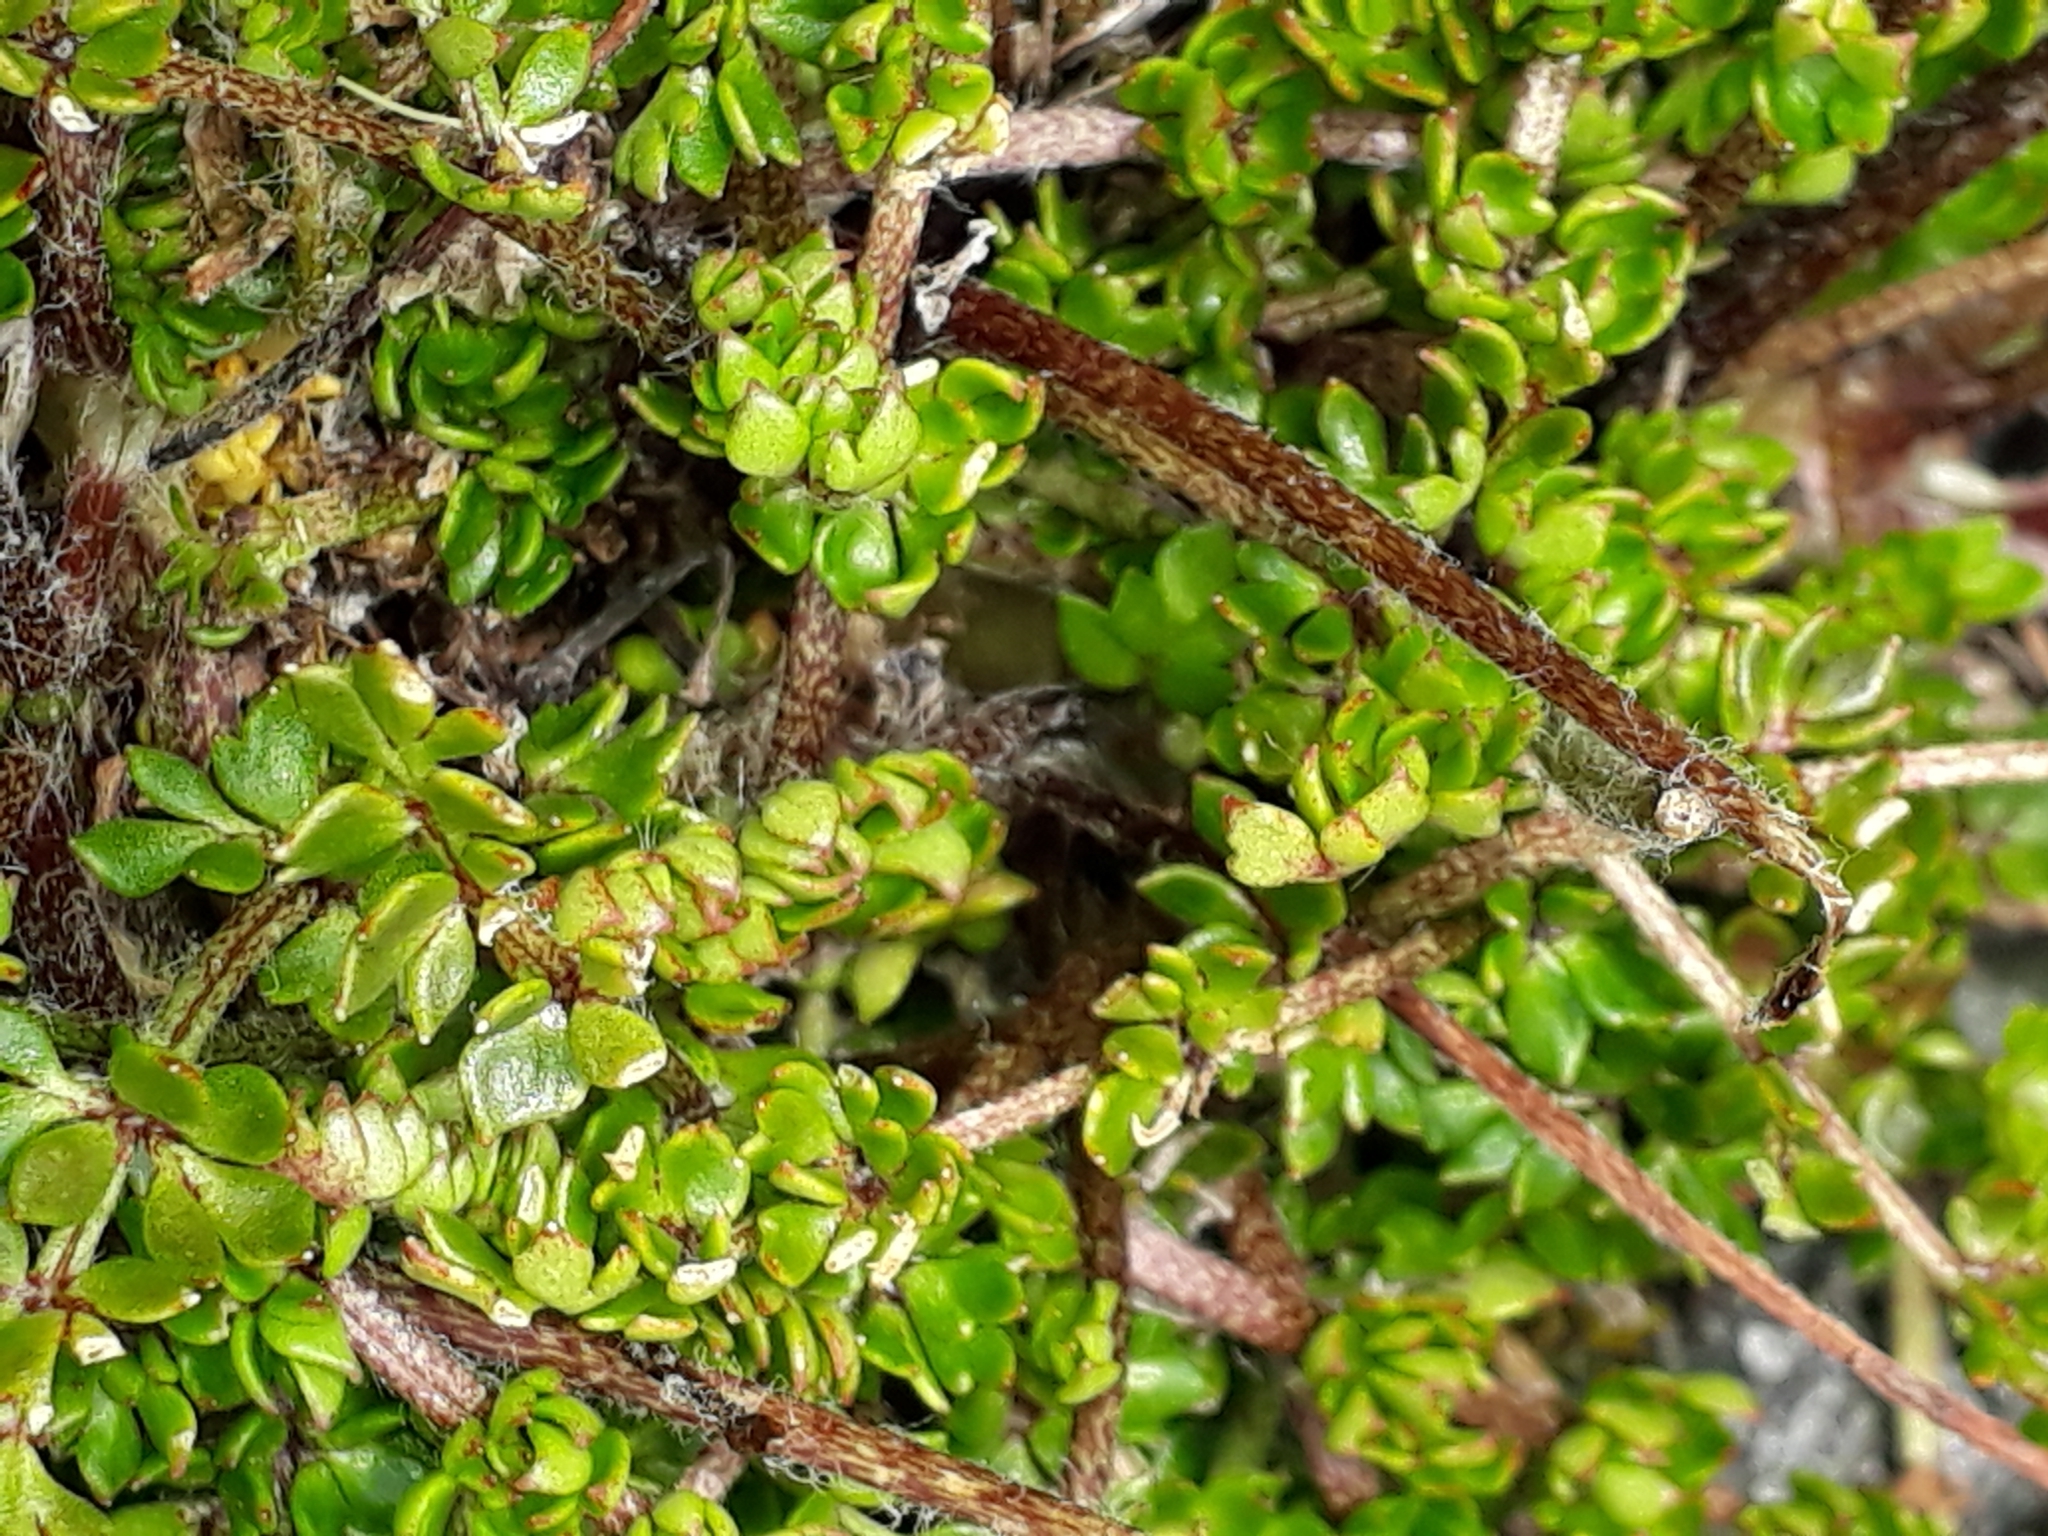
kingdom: Plantae
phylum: Tracheophyta
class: Magnoliopsida
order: Ranunculales
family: Ranunculaceae
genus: Ranunculus
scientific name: Ranunculus gracilipes
